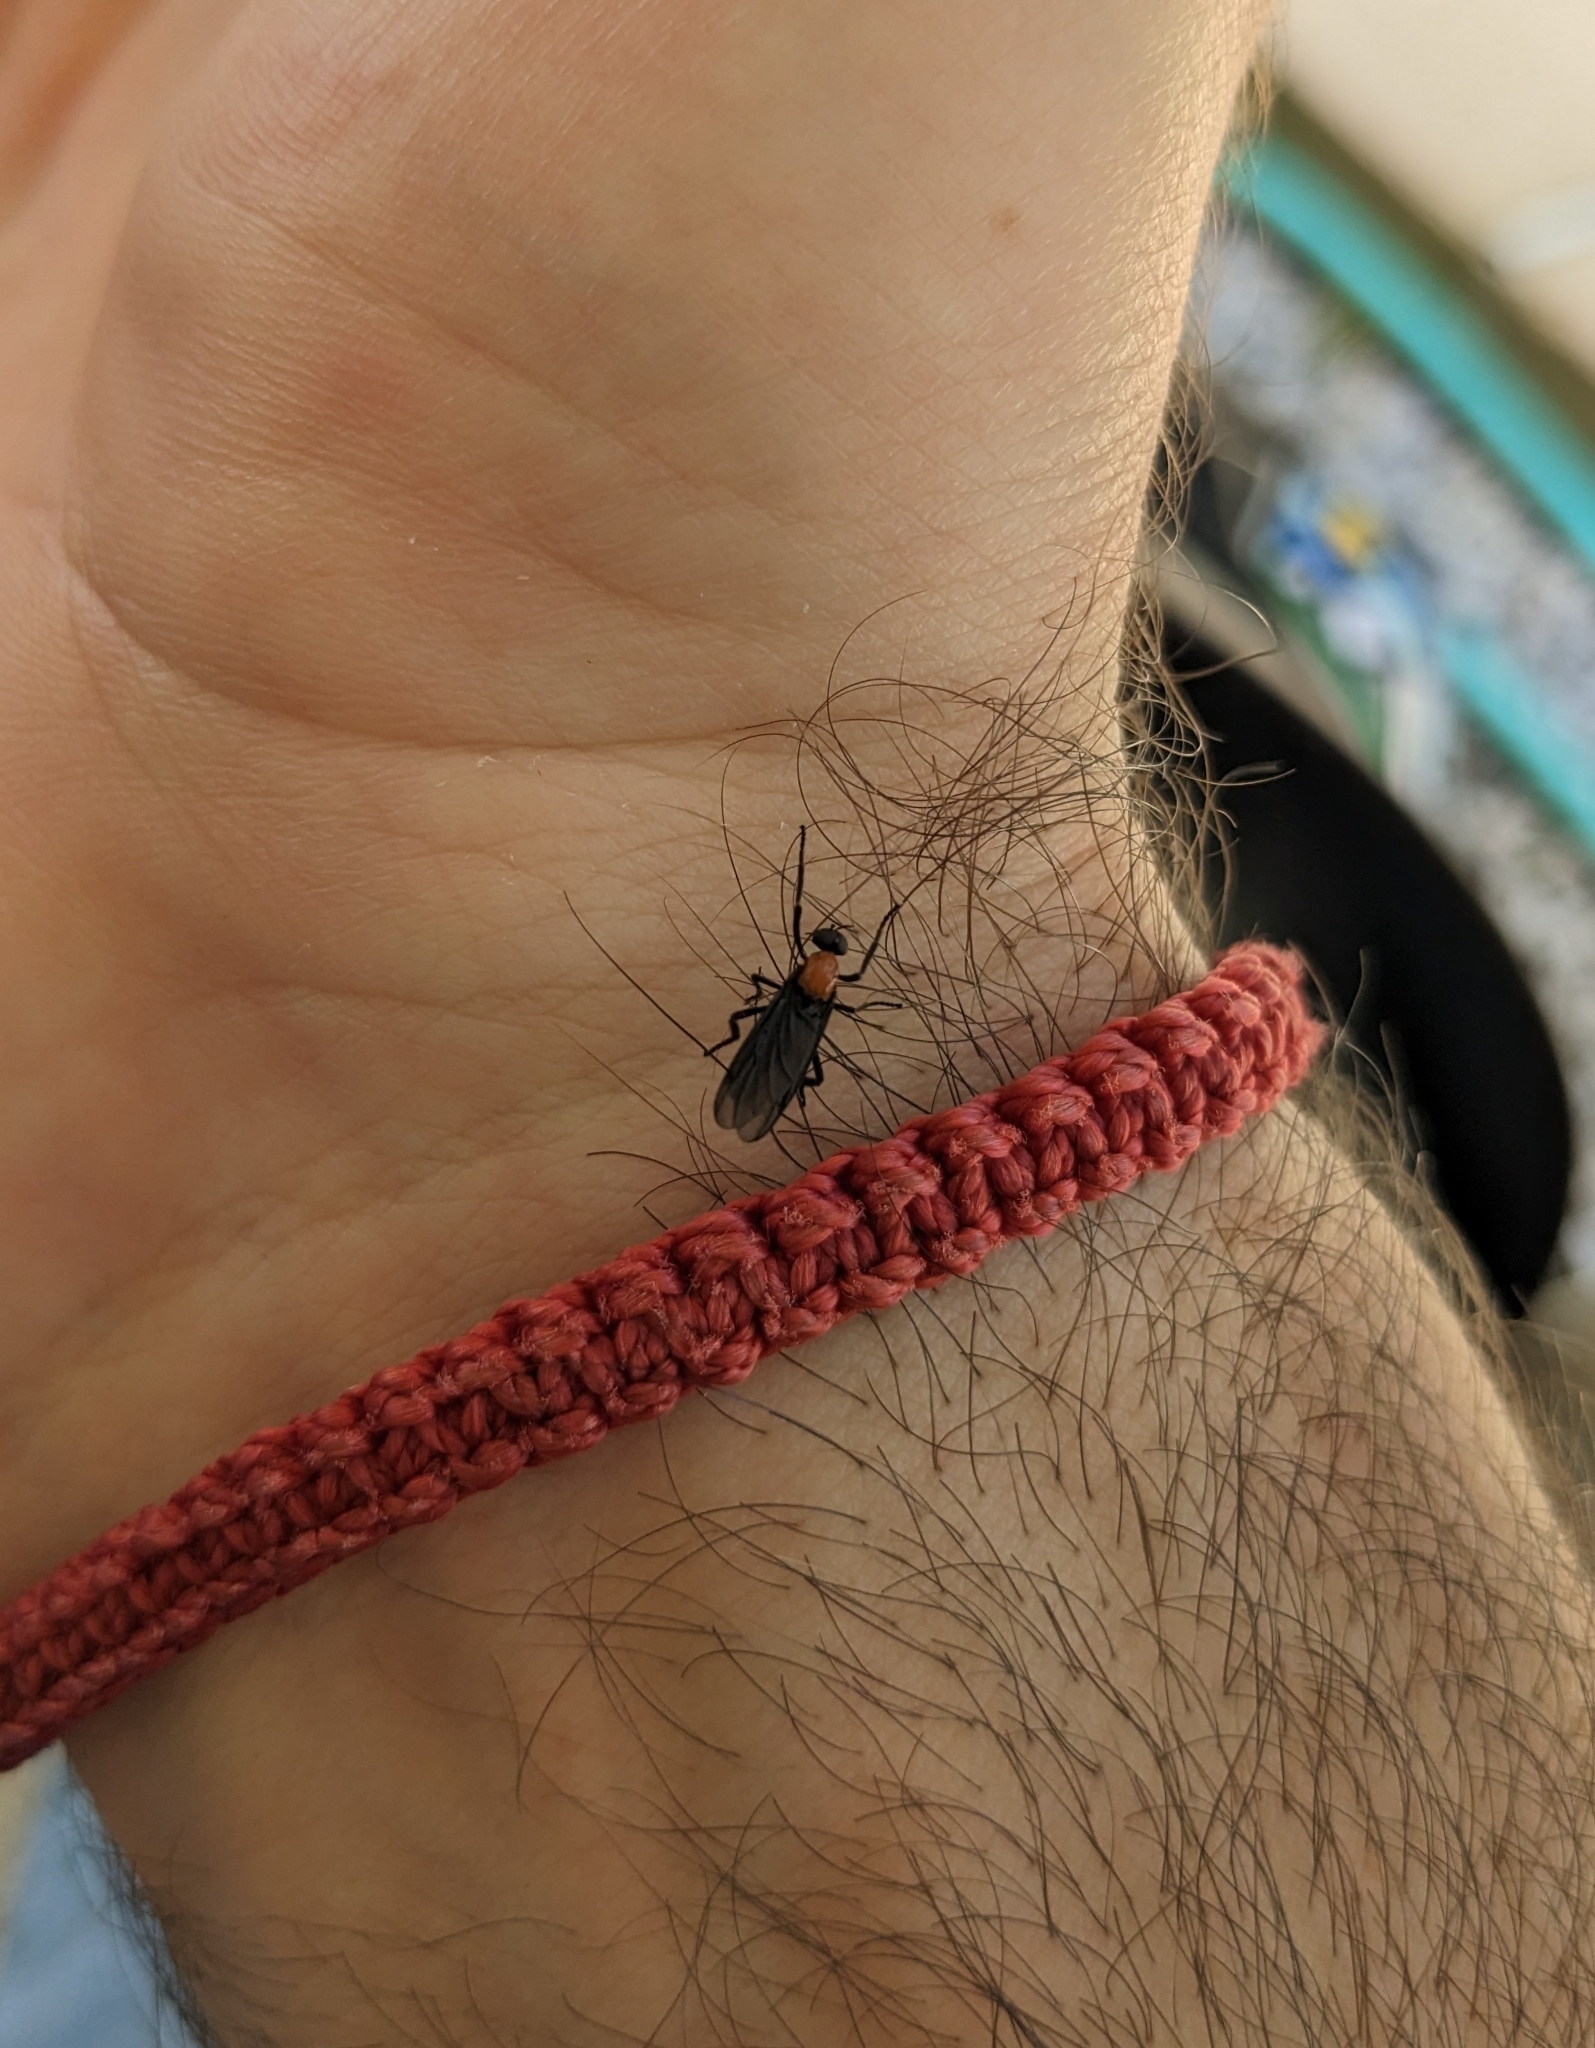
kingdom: Animalia
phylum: Arthropoda
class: Insecta
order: Diptera
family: Bibionidae
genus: Plecia
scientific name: Plecia nearctica
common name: March fly
